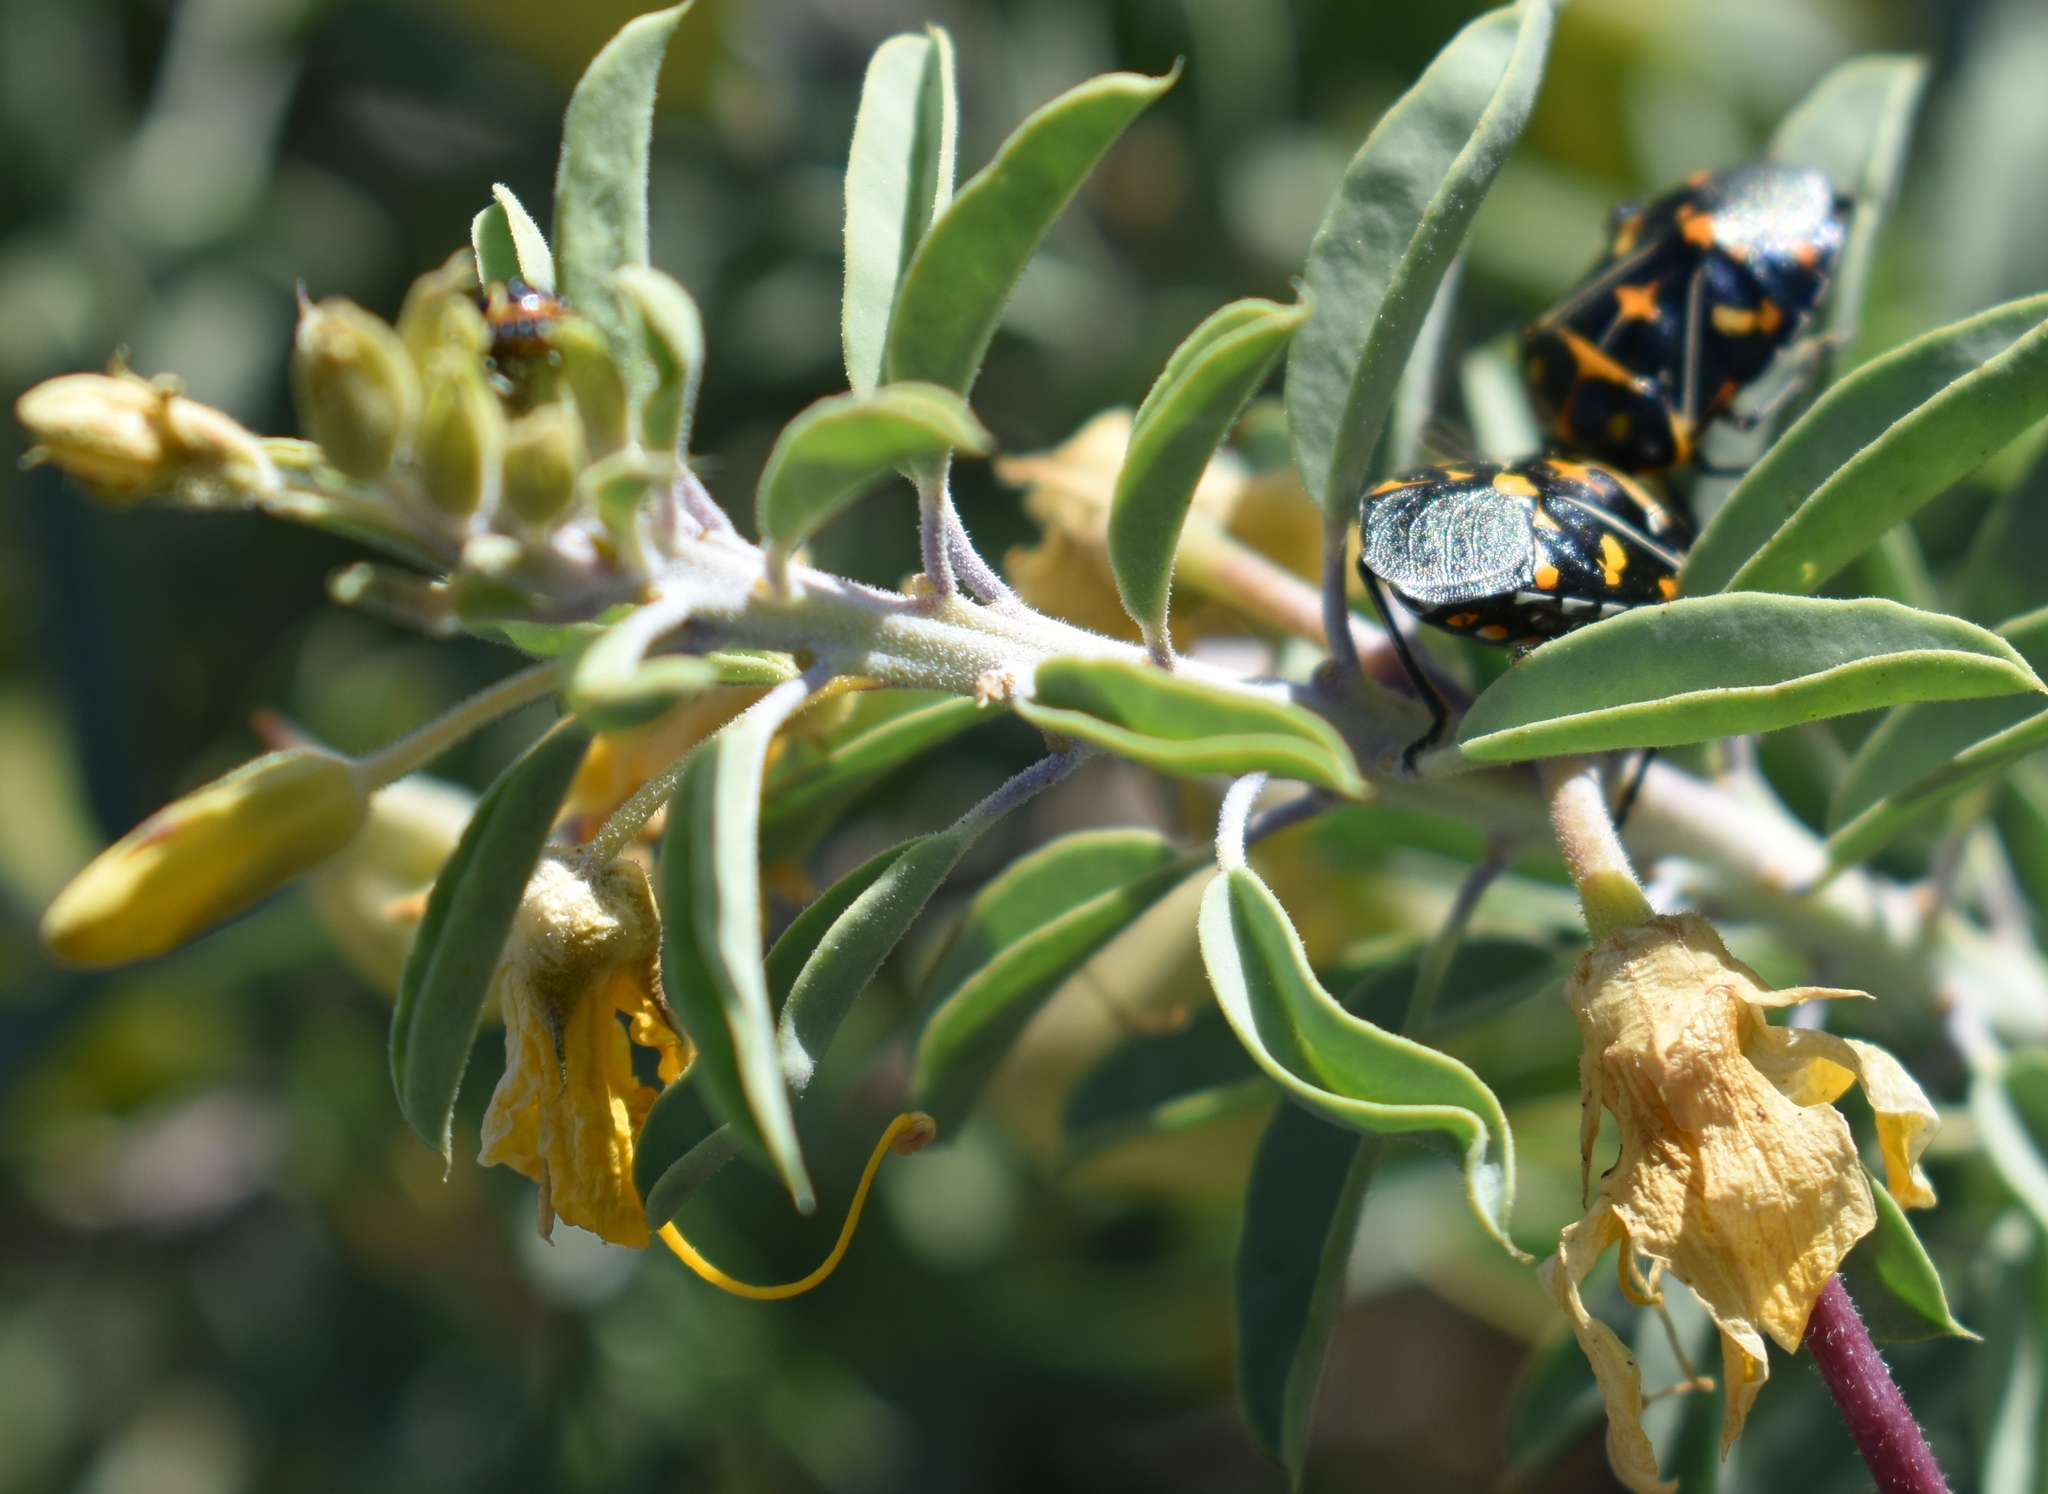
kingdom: Animalia
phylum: Arthropoda
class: Insecta
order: Hemiptera
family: Pentatomidae
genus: Murgantia
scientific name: Murgantia histrionica
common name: Harlequin bug
